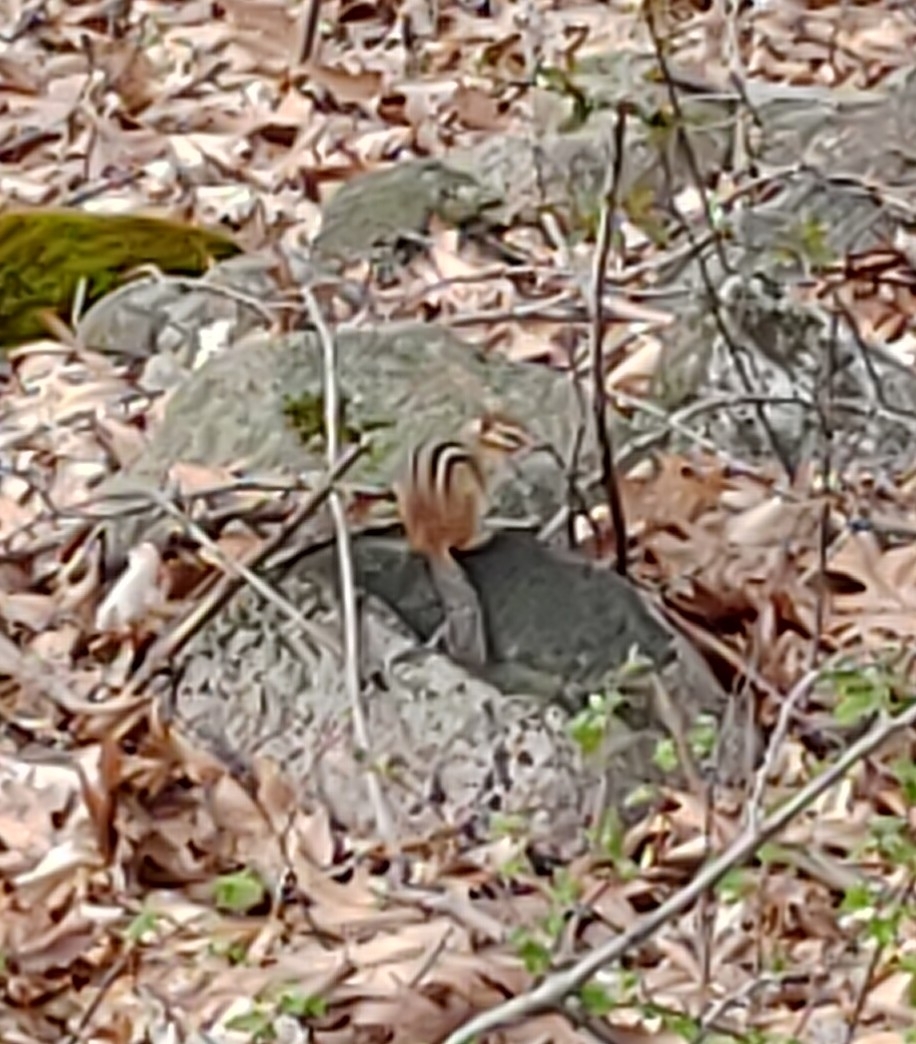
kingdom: Animalia
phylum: Chordata
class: Mammalia
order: Rodentia
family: Sciuridae
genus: Tamias
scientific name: Tamias striatus
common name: Eastern chipmunk
